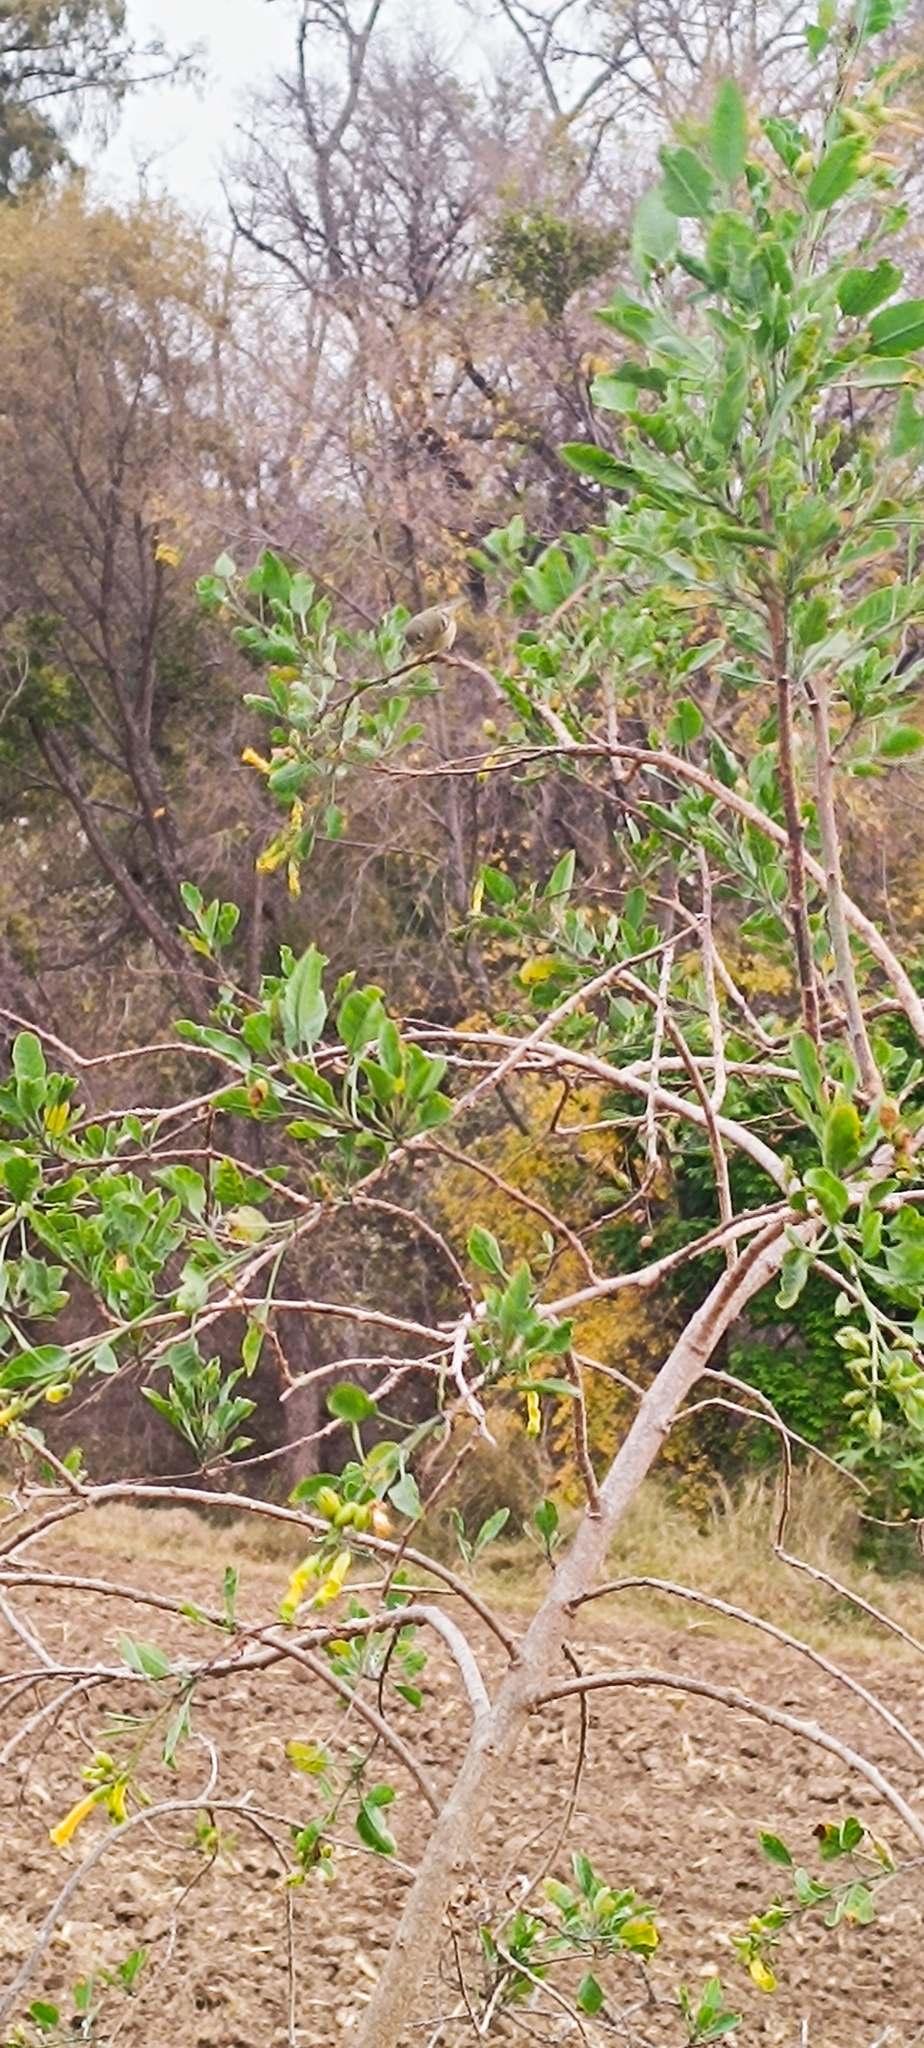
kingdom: Animalia
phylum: Chordata
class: Aves
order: Passeriformes
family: Regulidae
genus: Regulus
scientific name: Regulus calendula
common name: Ruby-crowned kinglet
